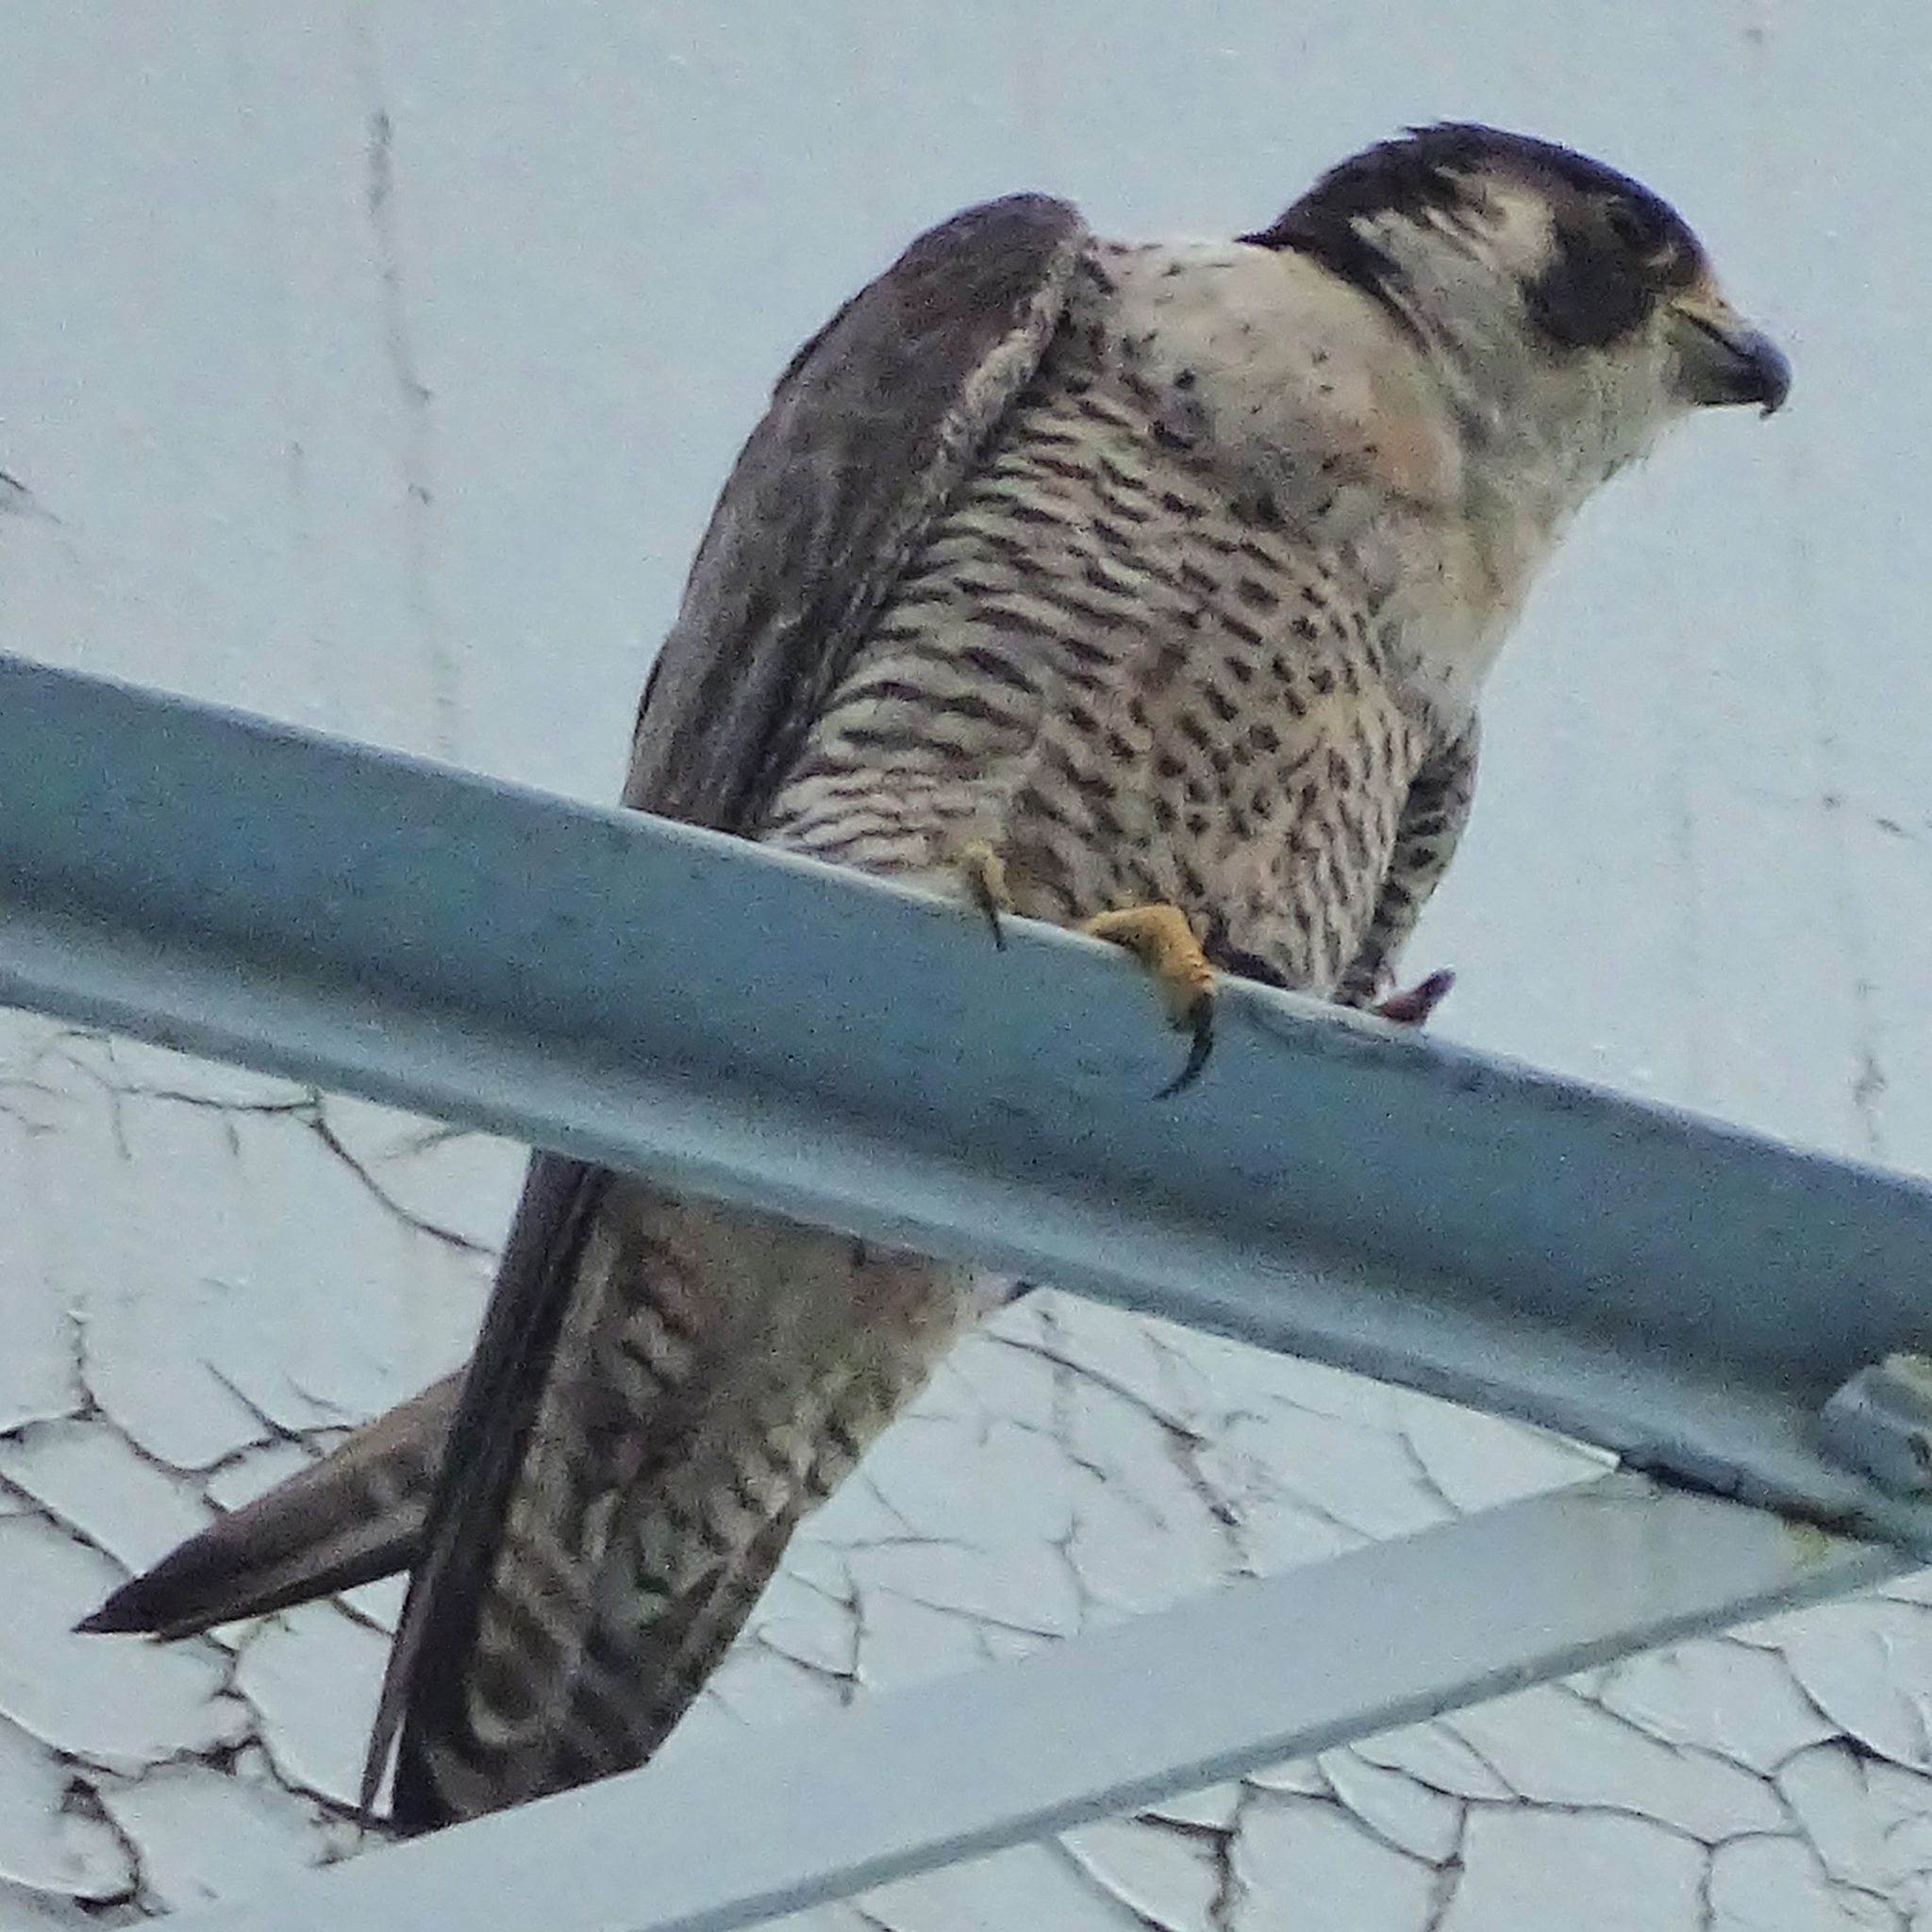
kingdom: Animalia
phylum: Chordata
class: Aves
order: Falconiformes
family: Falconidae
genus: Falco
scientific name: Falco peregrinus
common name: Peregrine falcon
